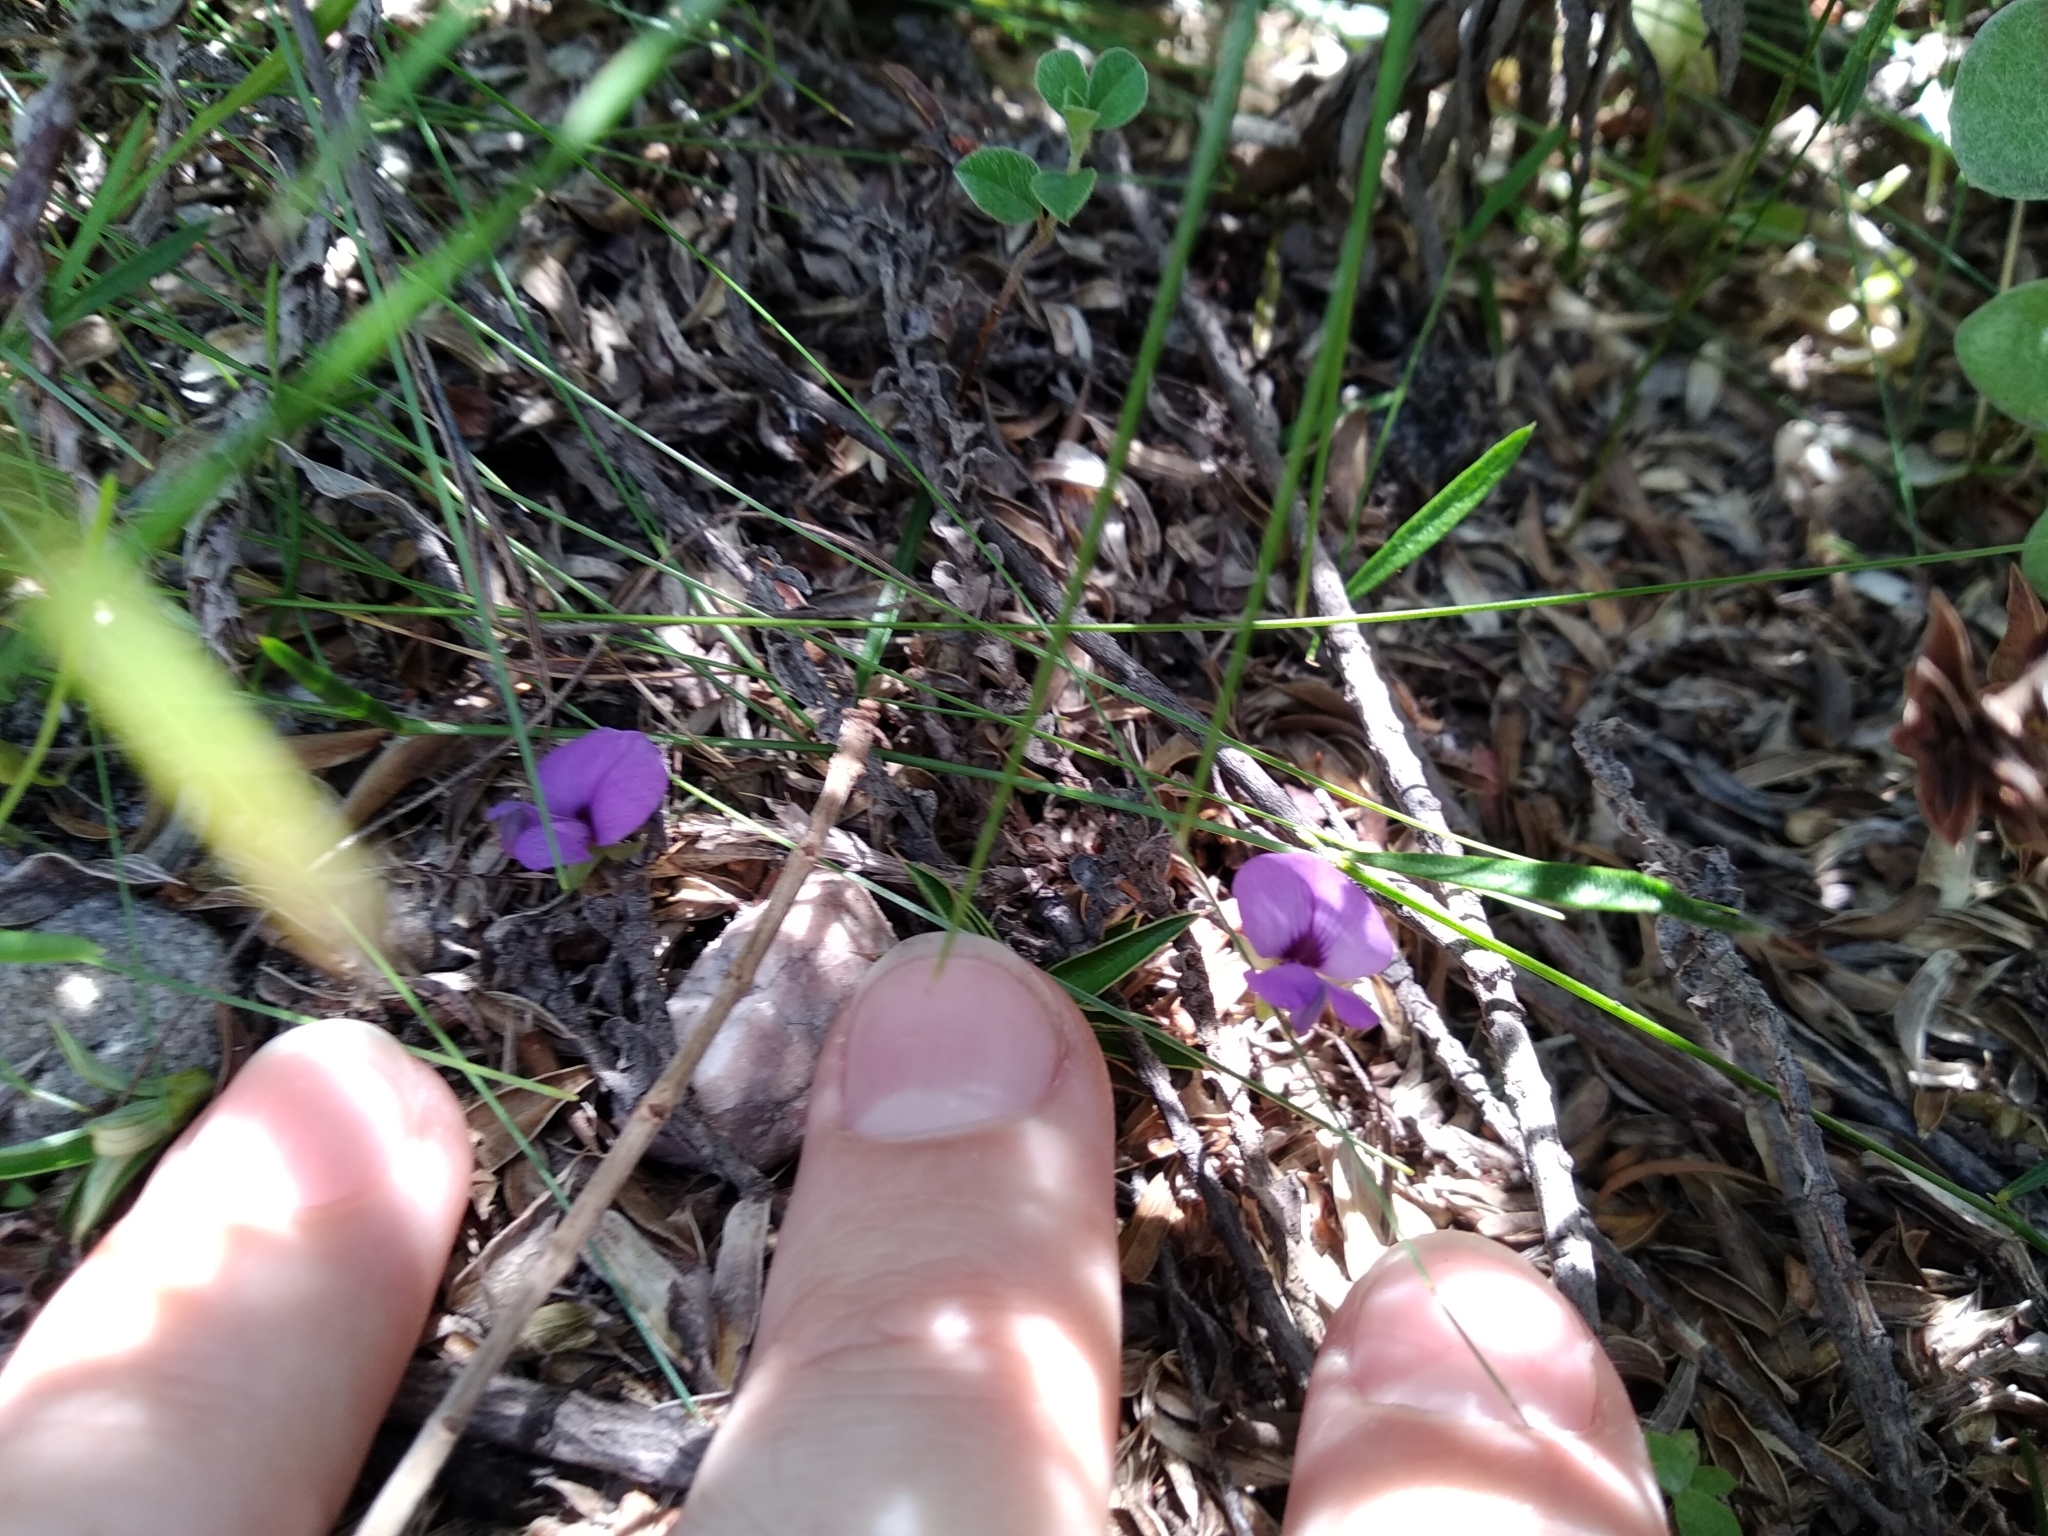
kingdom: Plantae
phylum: Tracheophyta
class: Magnoliopsida
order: Fabales
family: Fabaceae
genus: Psoralea
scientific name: Psoralea laxa
